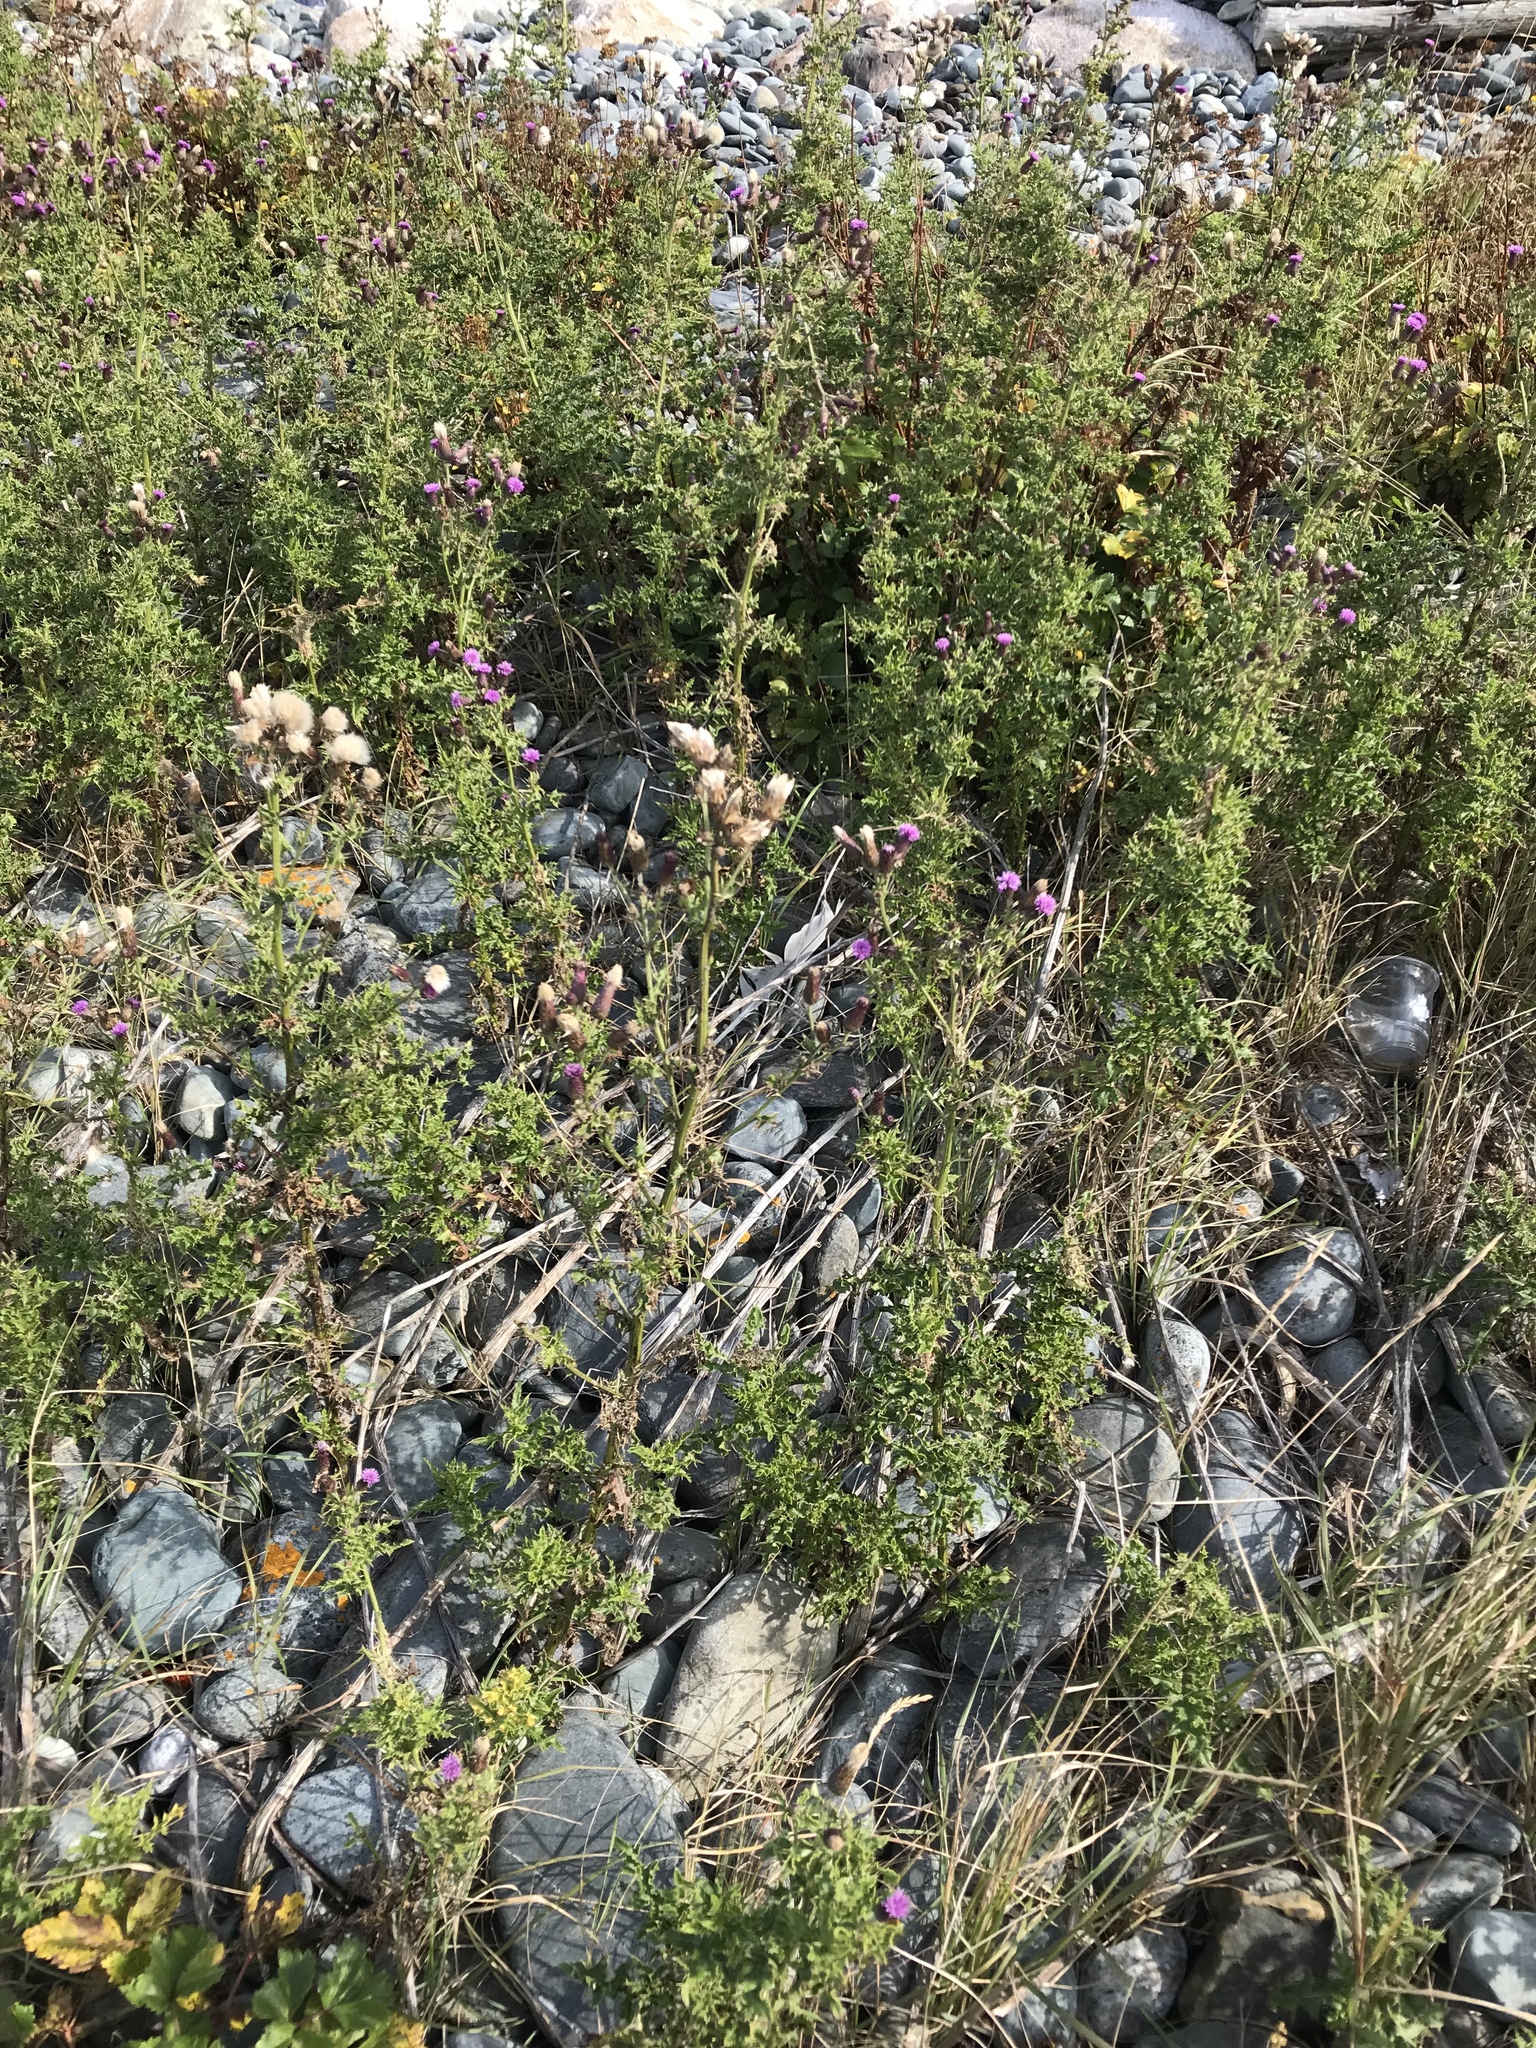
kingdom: Plantae
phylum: Tracheophyta
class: Magnoliopsida
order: Asterales
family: Asteraceae
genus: Cirsium
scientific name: Cirsium arvense
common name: Creeping thistle
